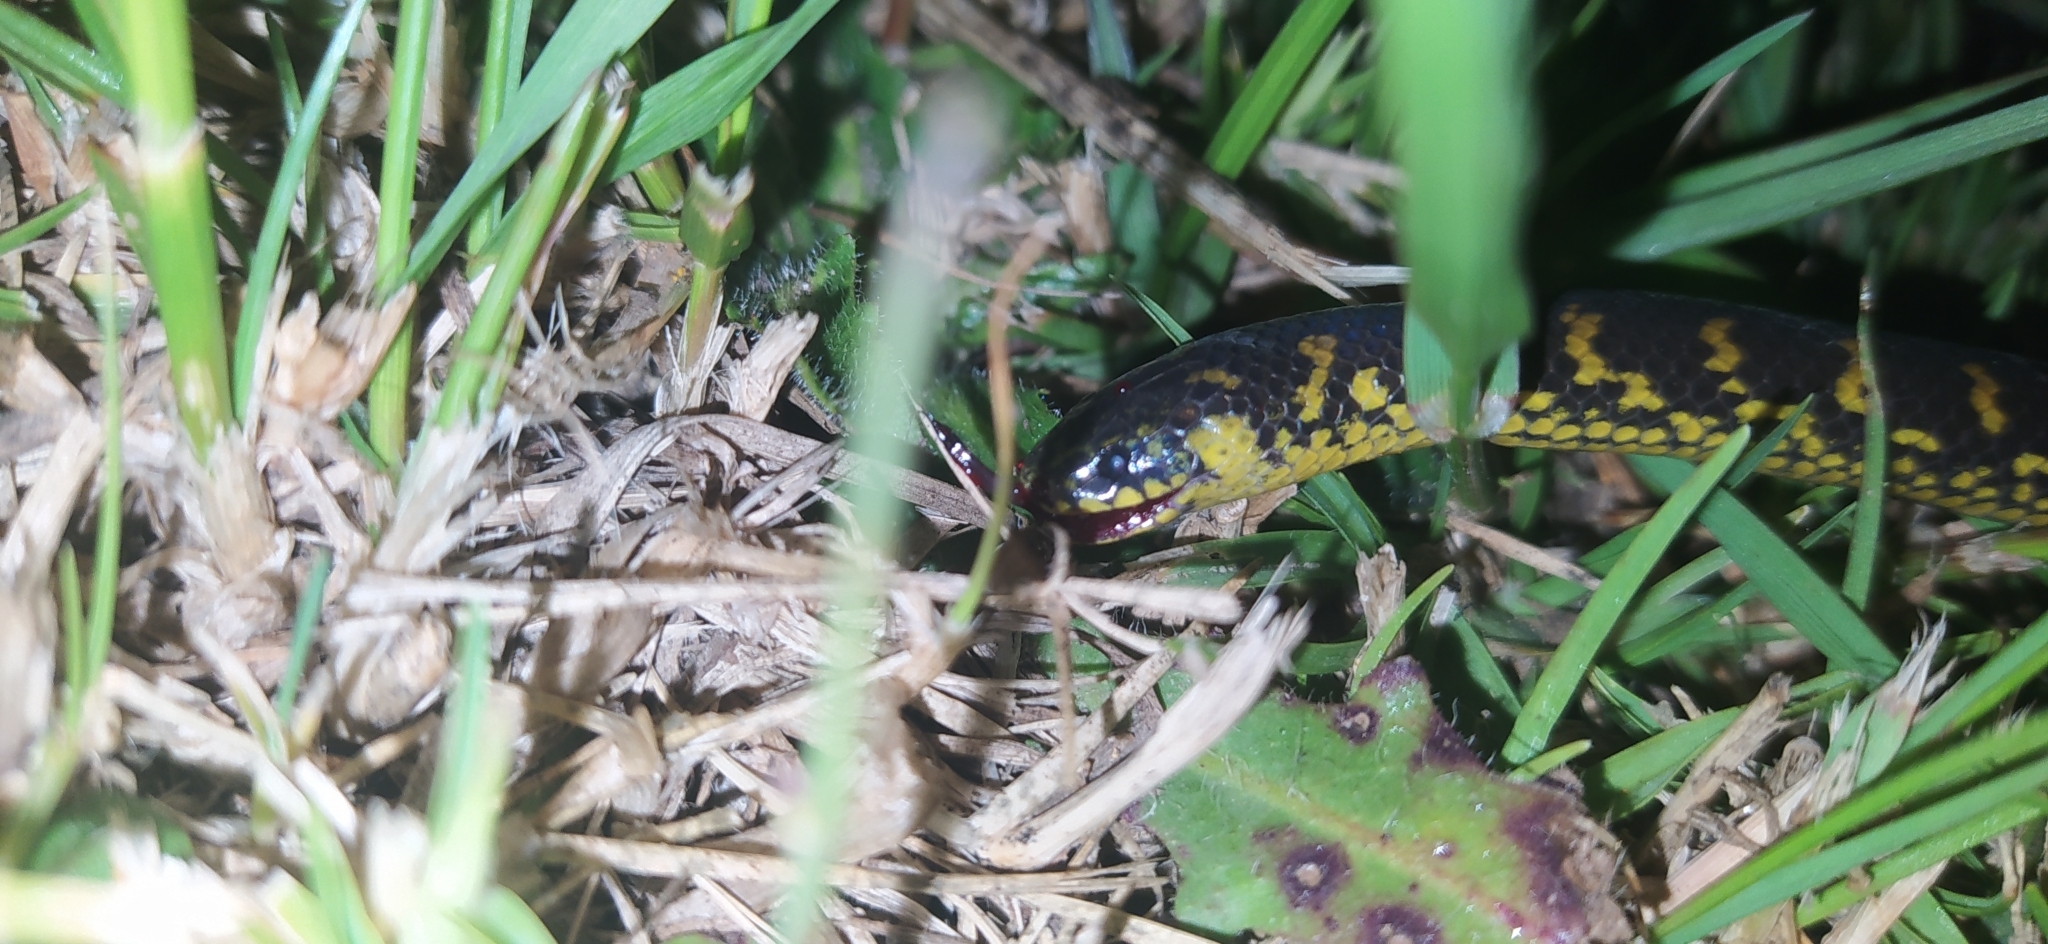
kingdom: Animalia
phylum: Chordata
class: Squamata
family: Colubridae
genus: Atractus
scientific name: Atractus crassicaudatus
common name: Thickhead ground snake
